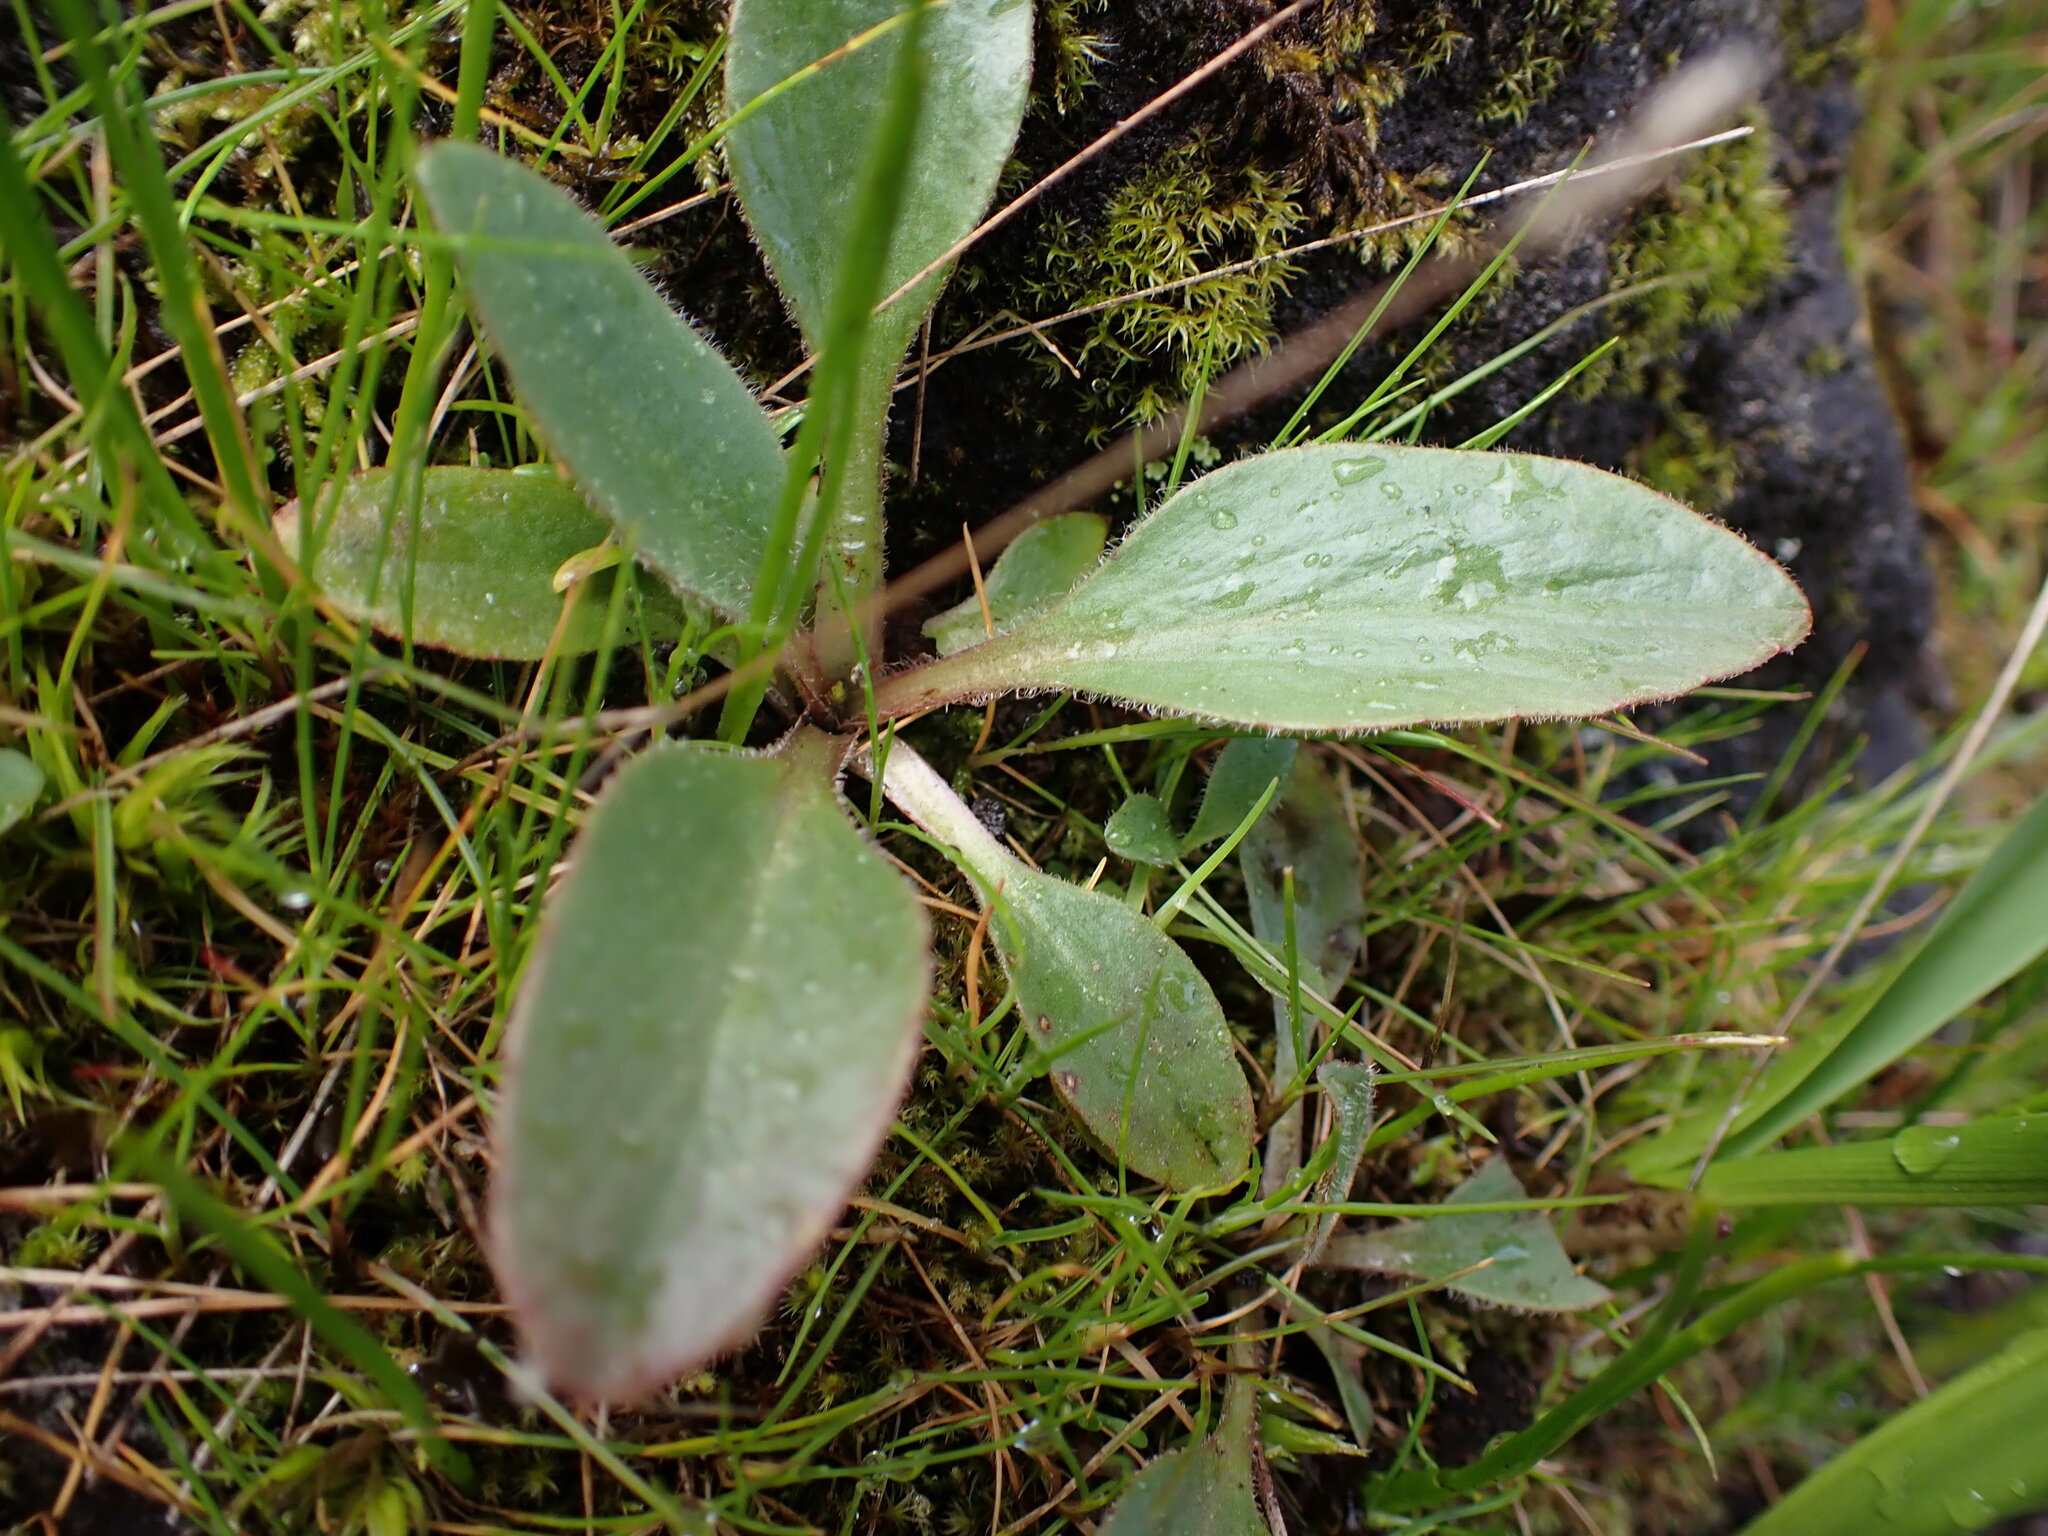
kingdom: Plantae
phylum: Tracheophyta
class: Magnoliopsida
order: Saxifragales
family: Saxifragaceae
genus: Micranthes
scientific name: Micranthes integrifolia
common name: Wholeleaf saxifrage
